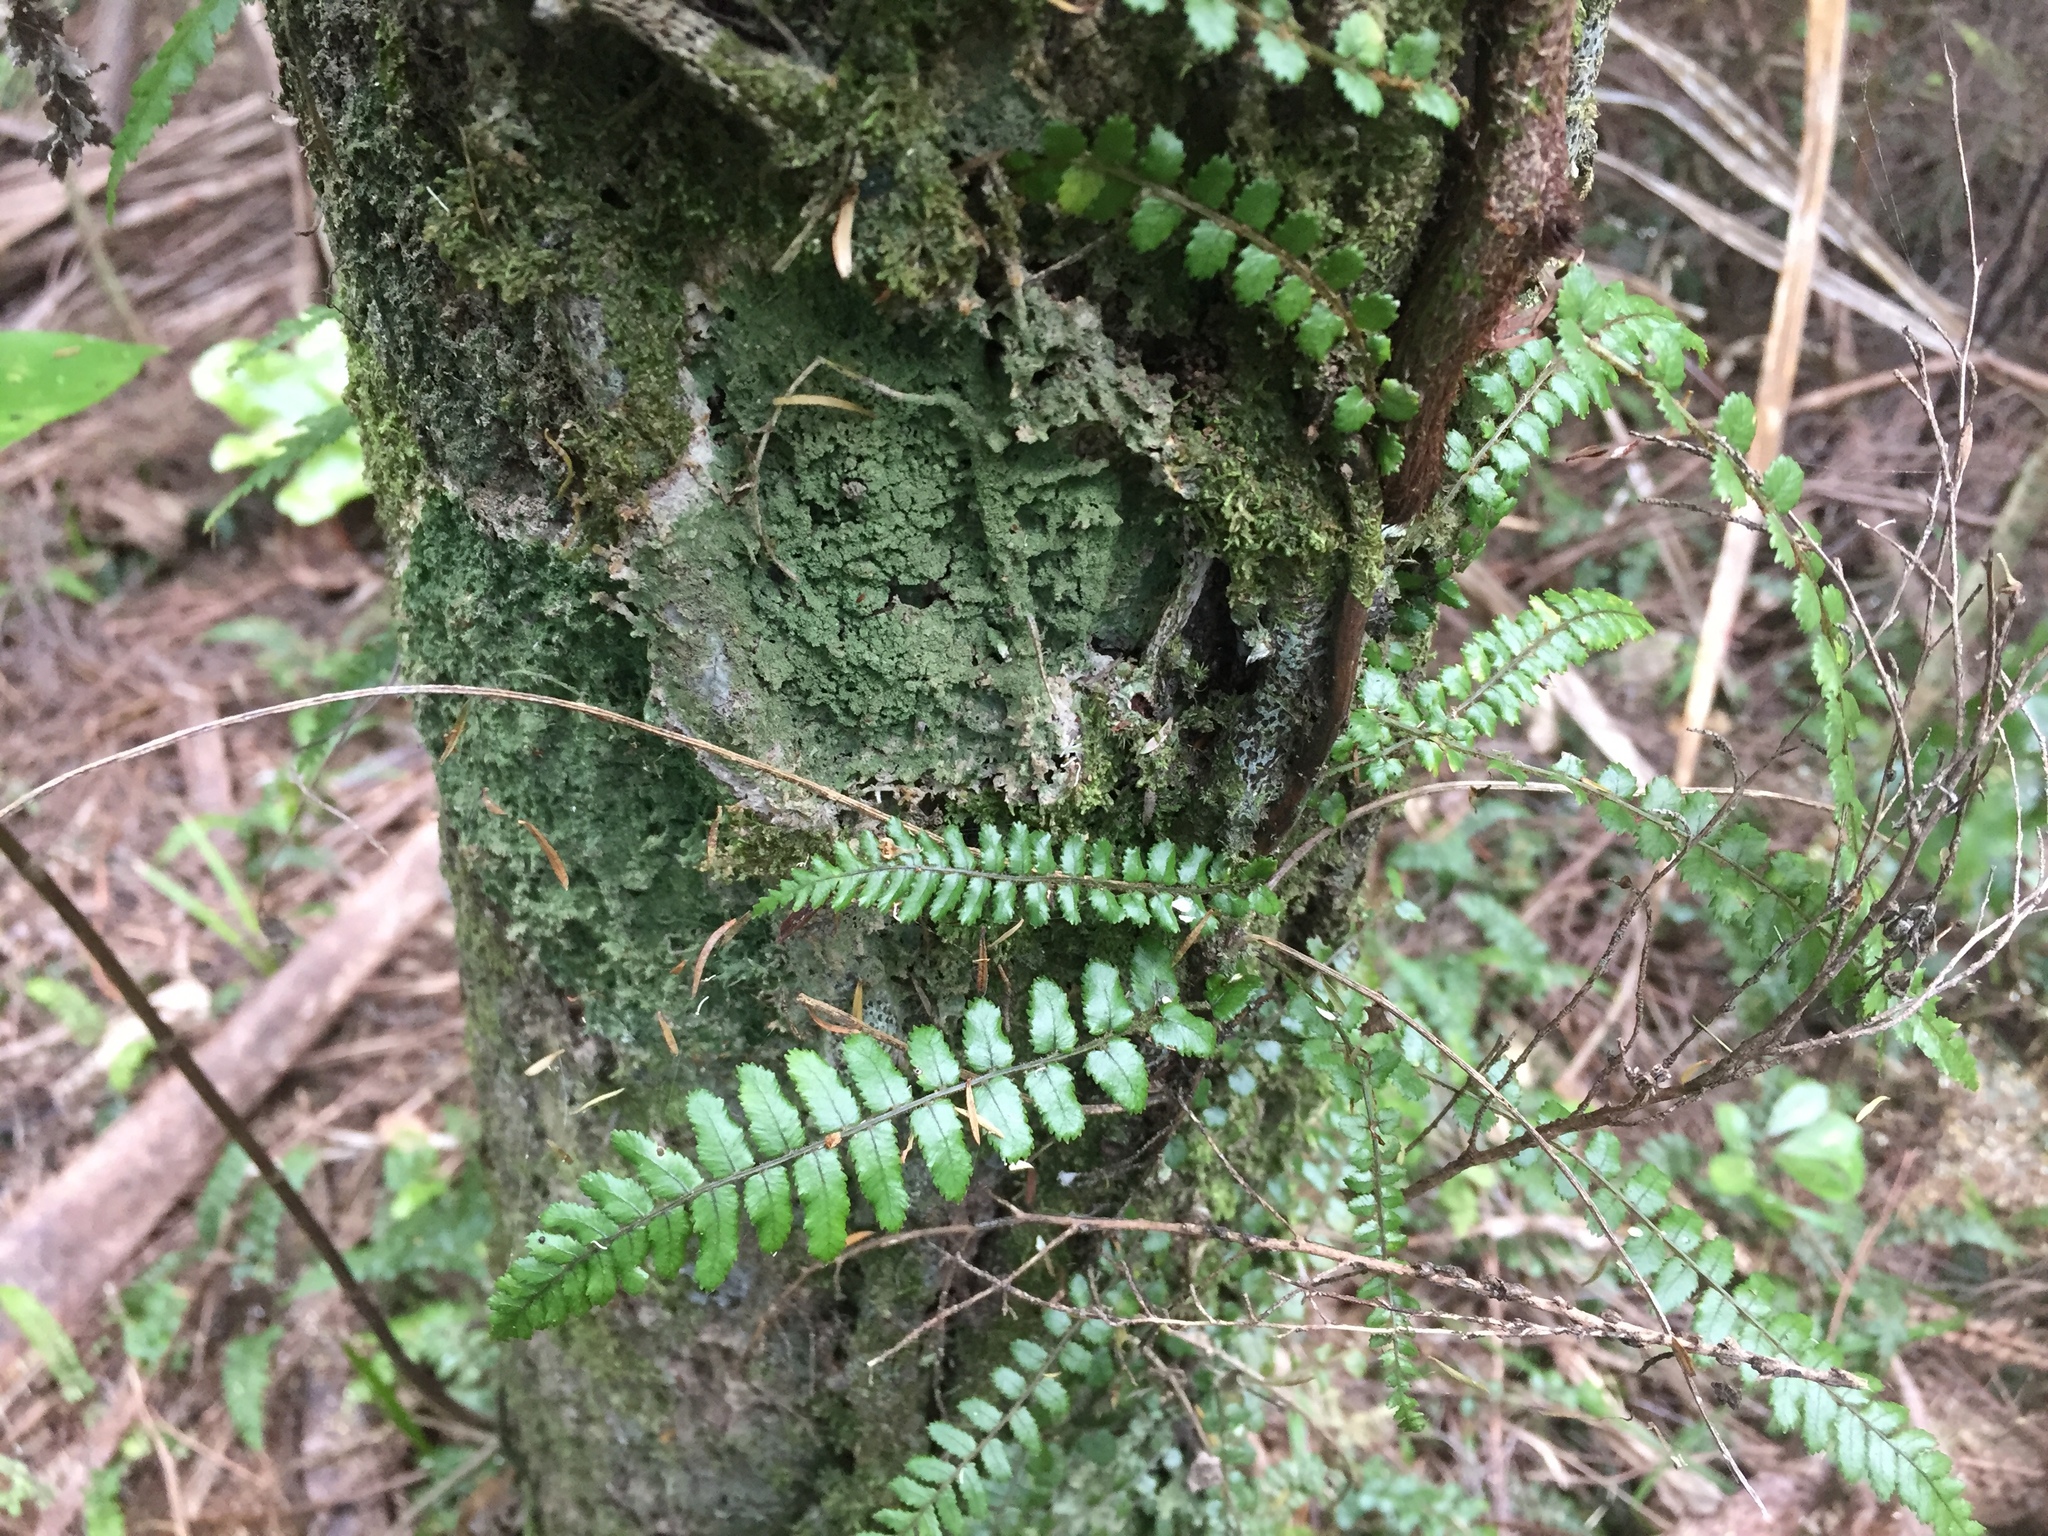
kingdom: Plantae
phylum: Tracheophyta
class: Polypodiopsida
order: Polypodiales
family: Blechnaceae
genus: Icarus
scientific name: Icarus filiformis
